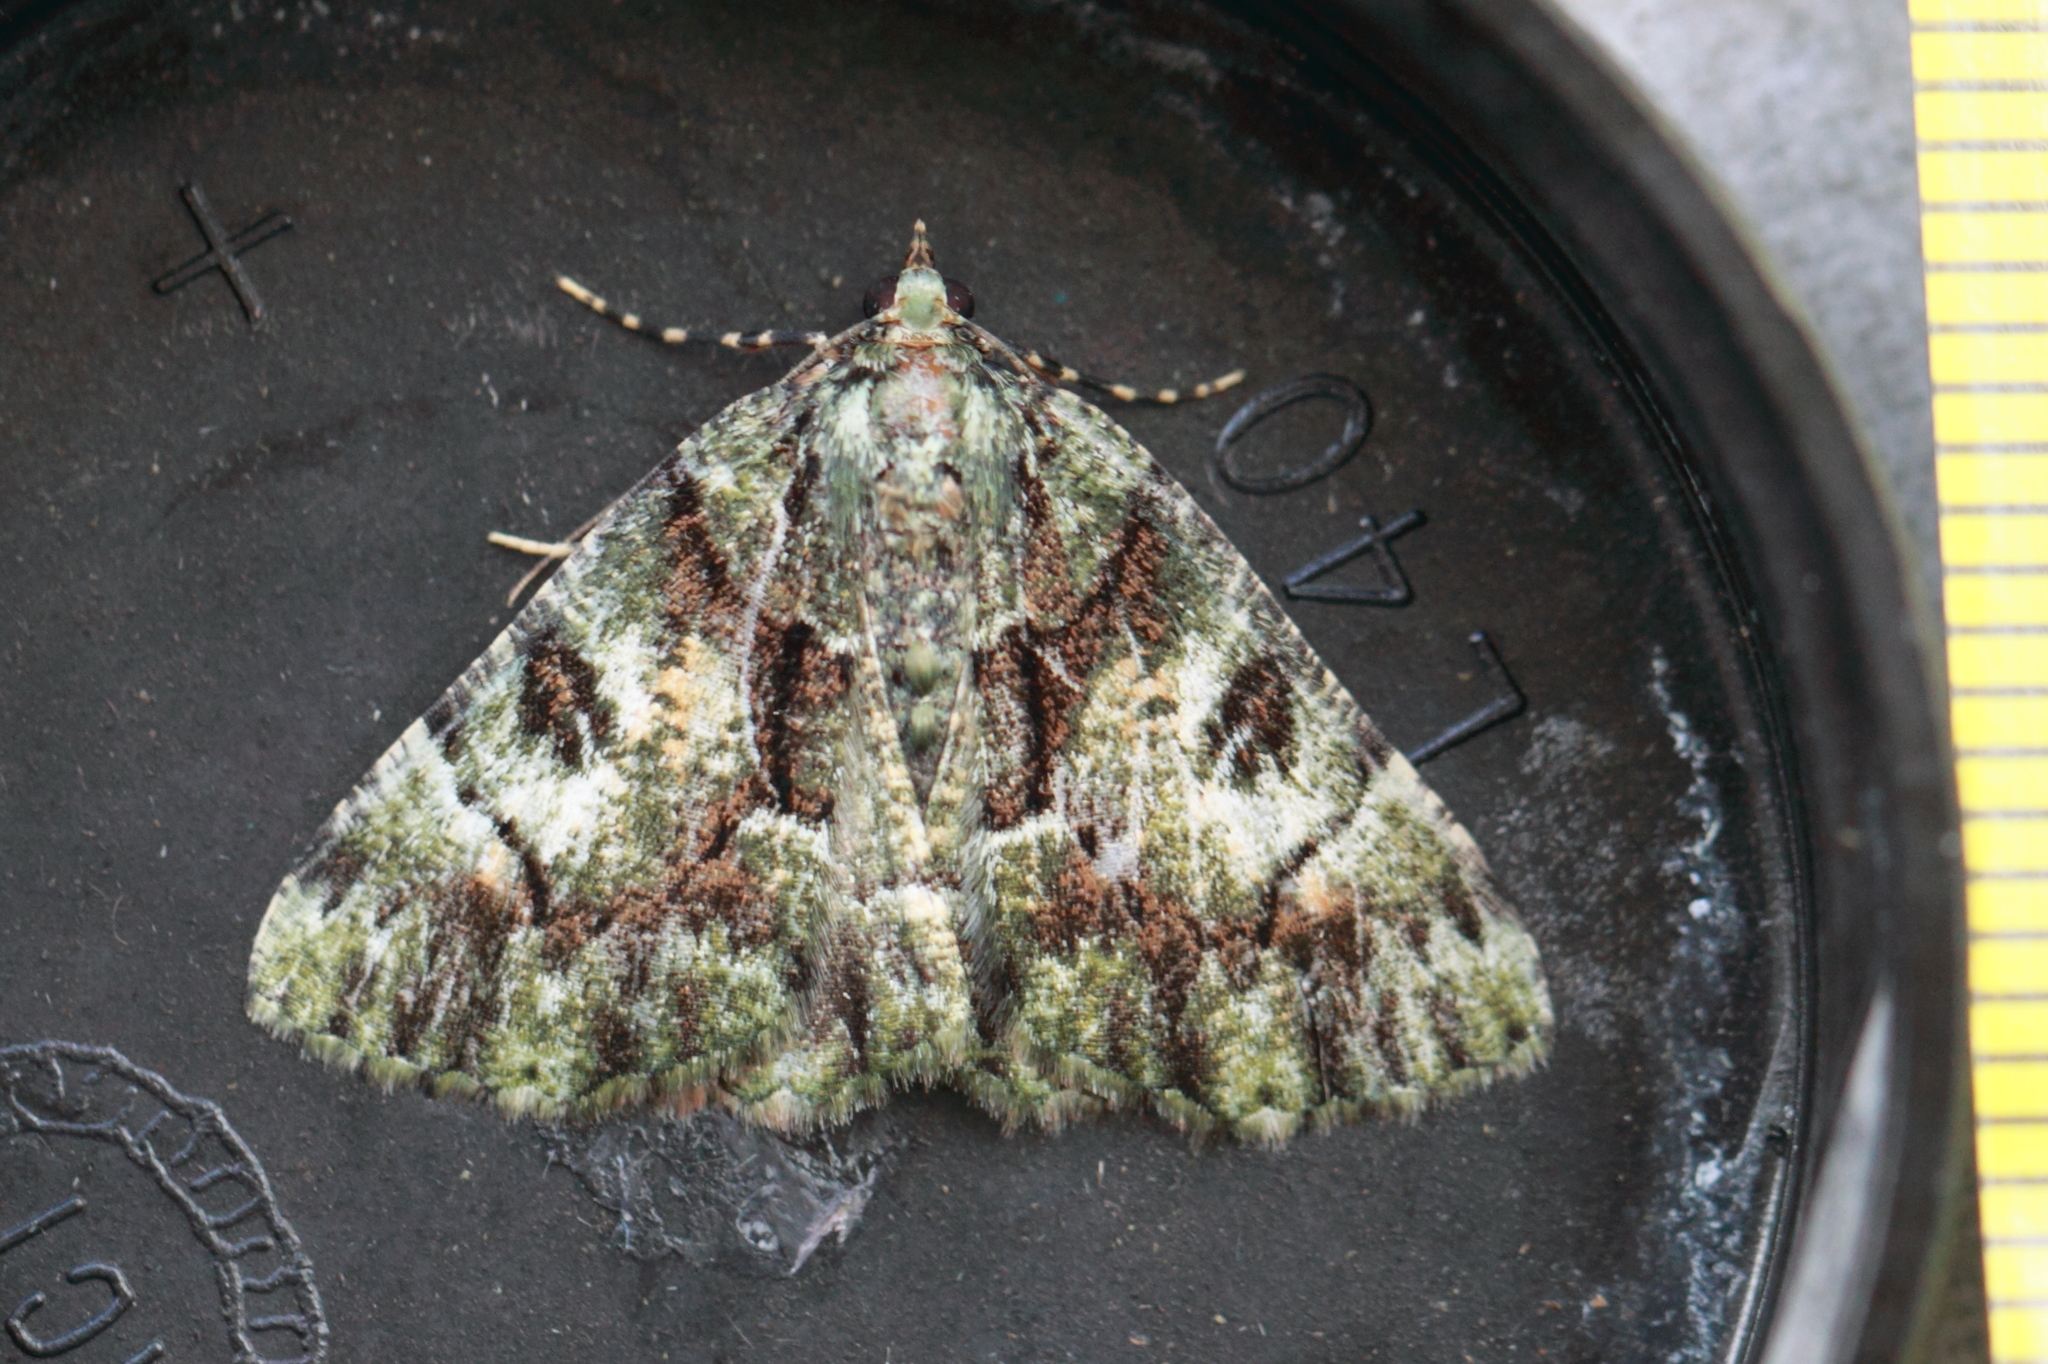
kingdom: Animalia
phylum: Arthropoda
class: Insecta
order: Lepidoptera
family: Geometridae
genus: Aeolochroma
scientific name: Aeolochroma metarhodata
